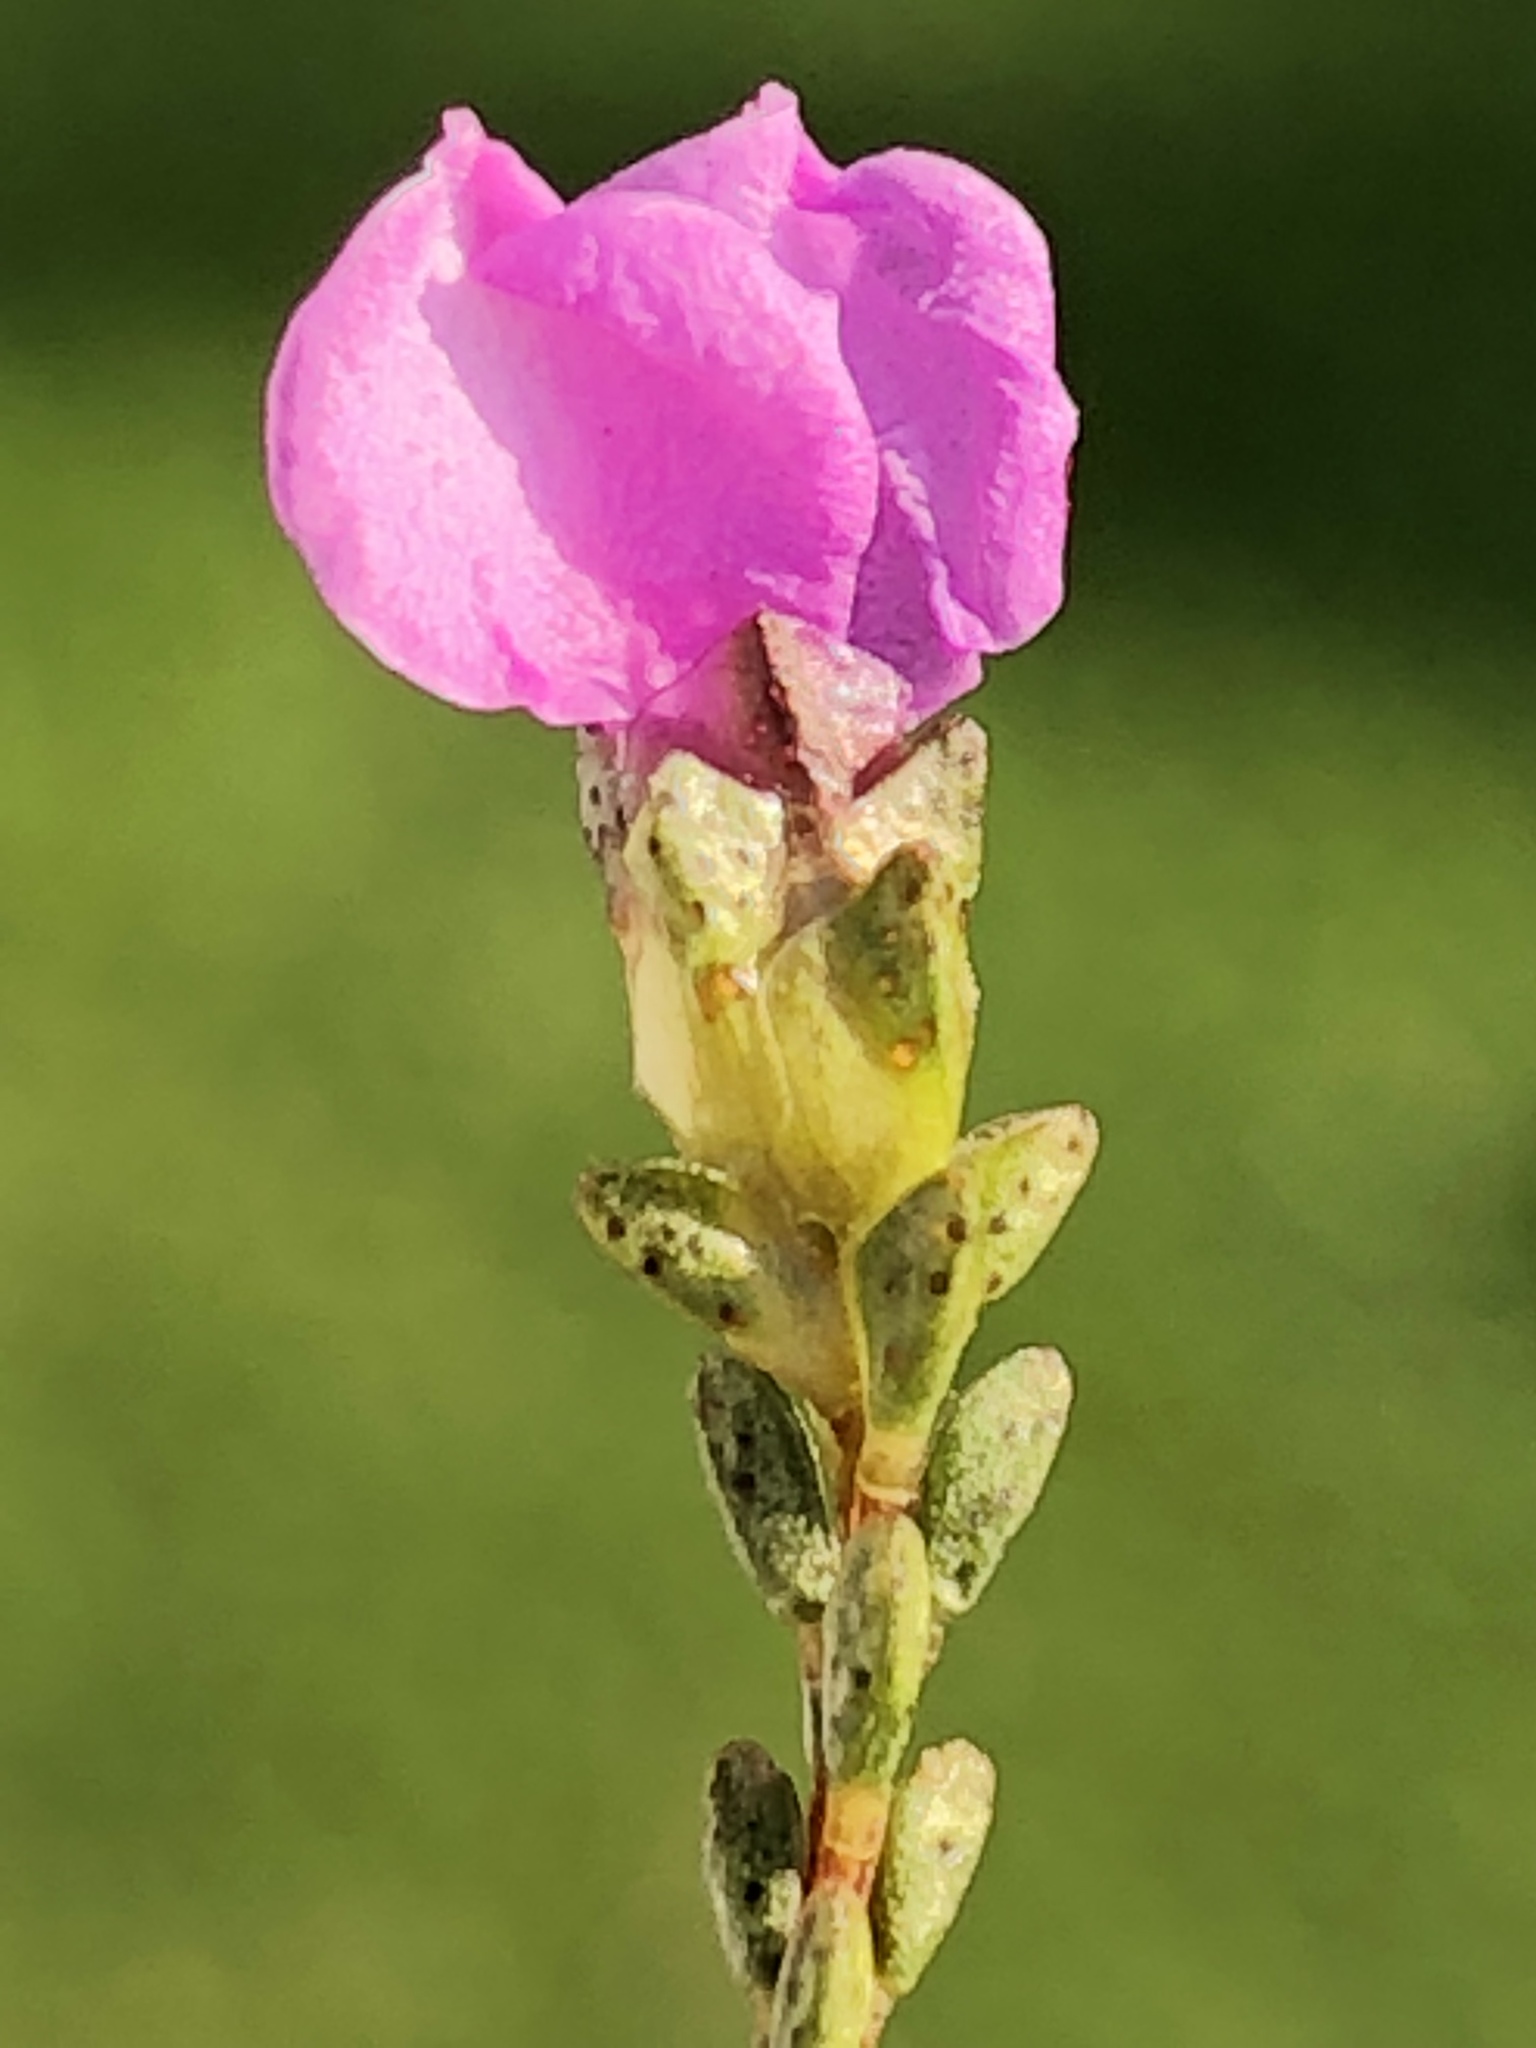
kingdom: Plantae
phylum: Tracheophyta
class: Magnoliopsida
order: Sapindales
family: Rutaceae
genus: Acmadenia
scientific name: Acmadenia sheilae
